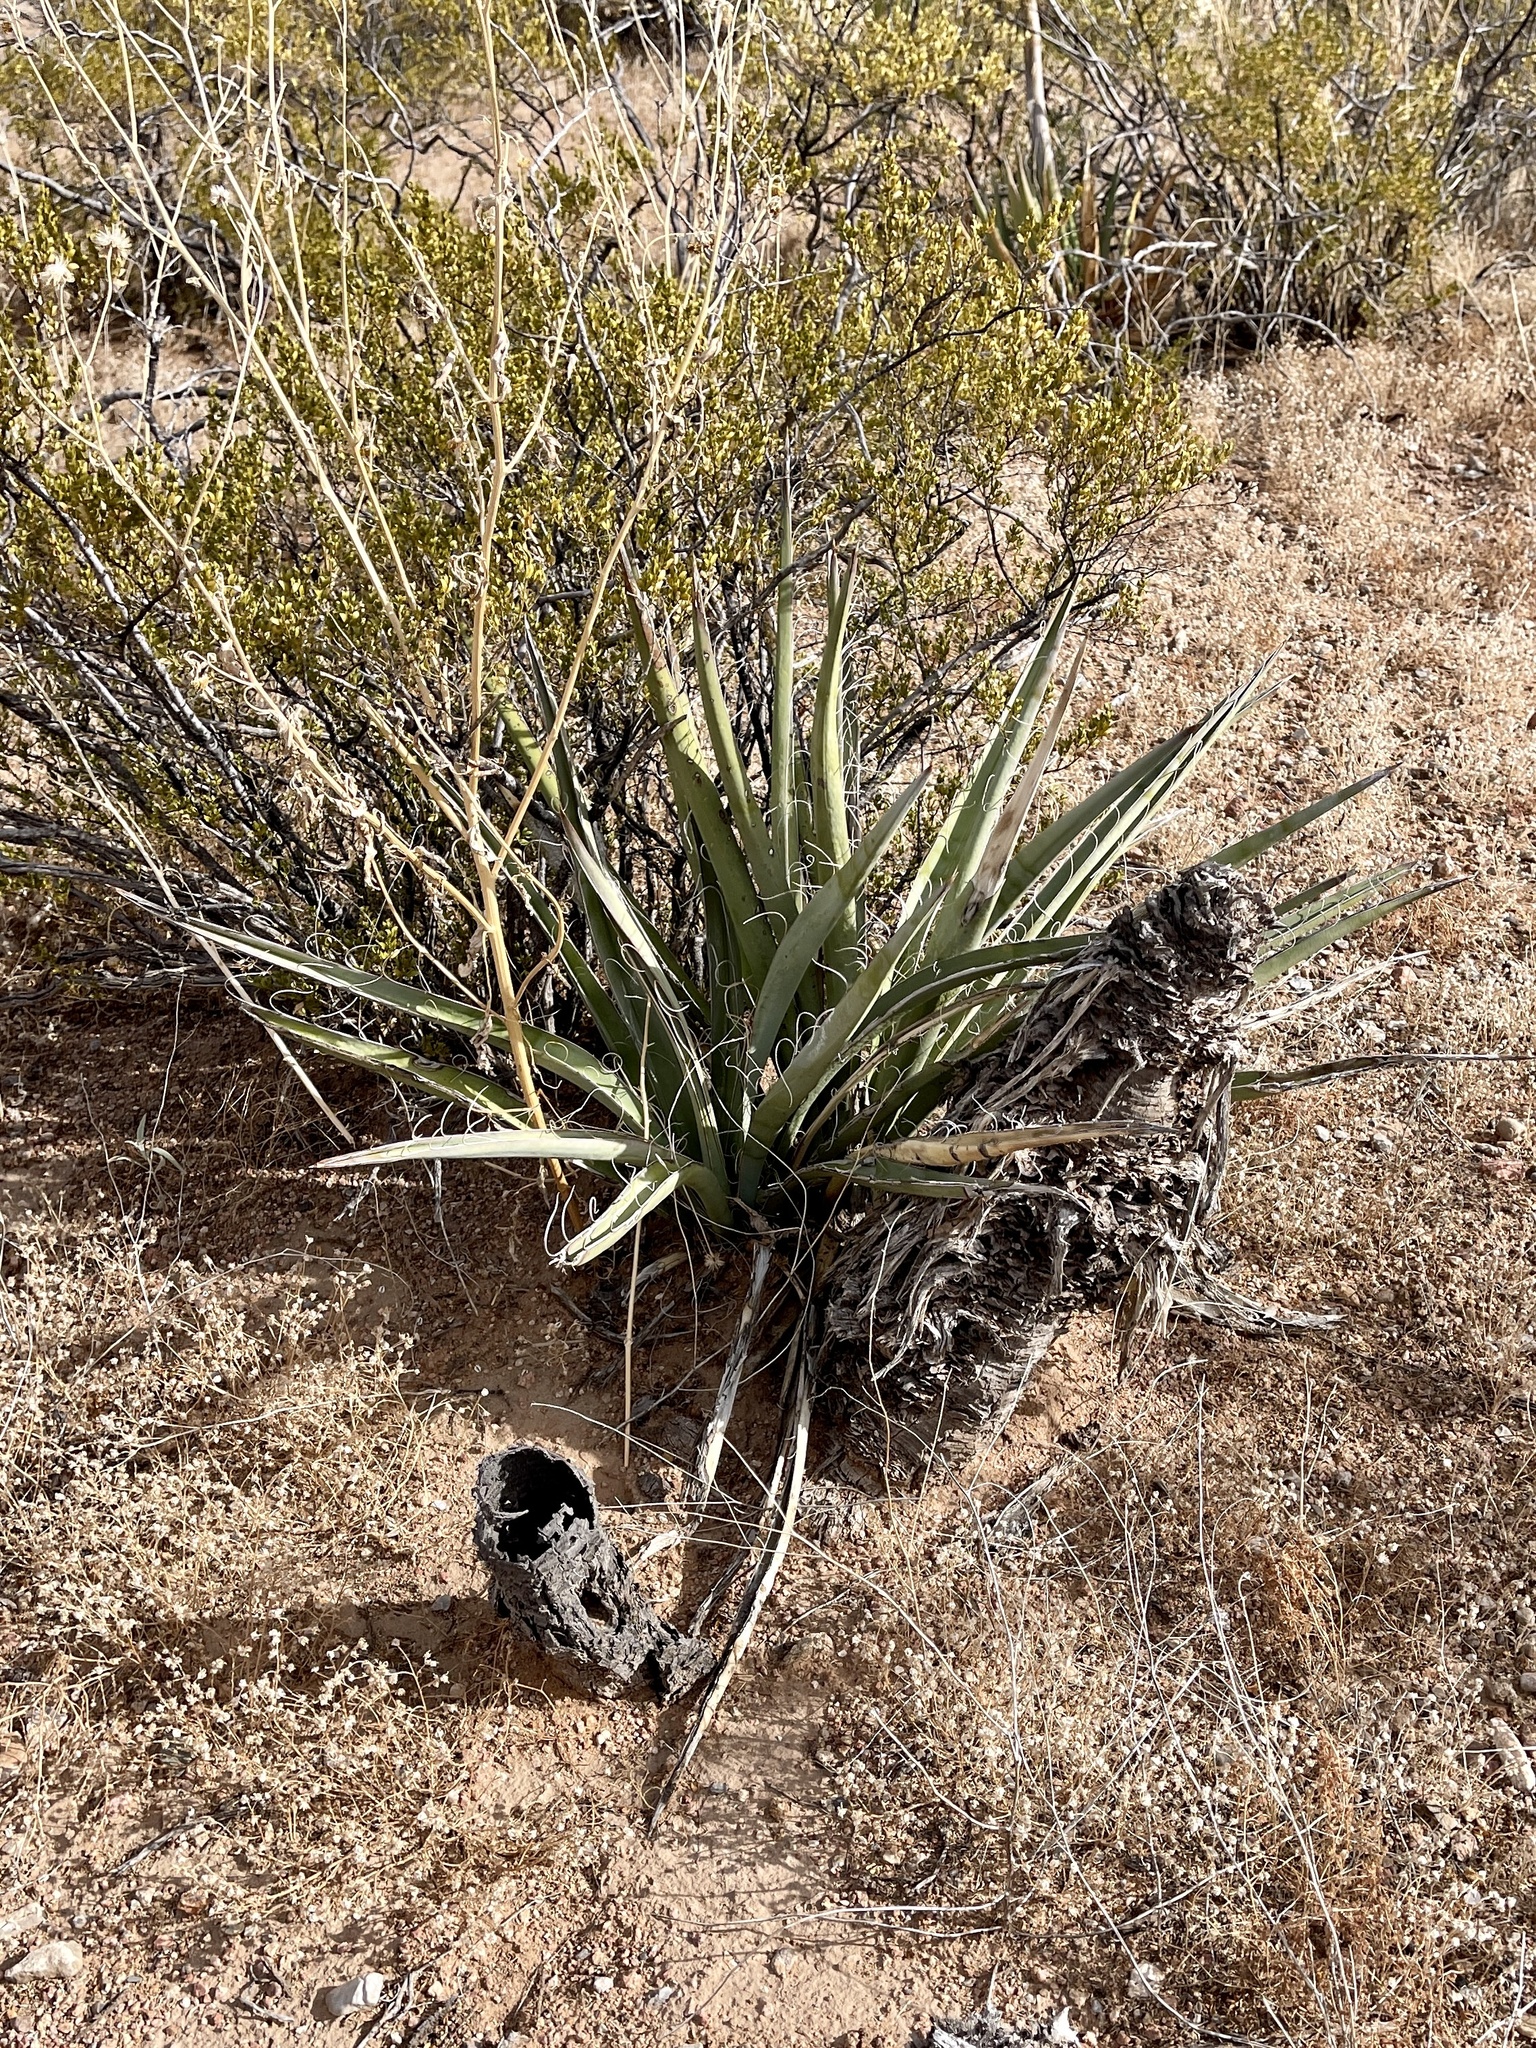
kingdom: Plantae
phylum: Tracheophyta
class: Liliopsida
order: Asparagales
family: Asparagaceae
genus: Yucca
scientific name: Yucca baccata
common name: Banana yucca
